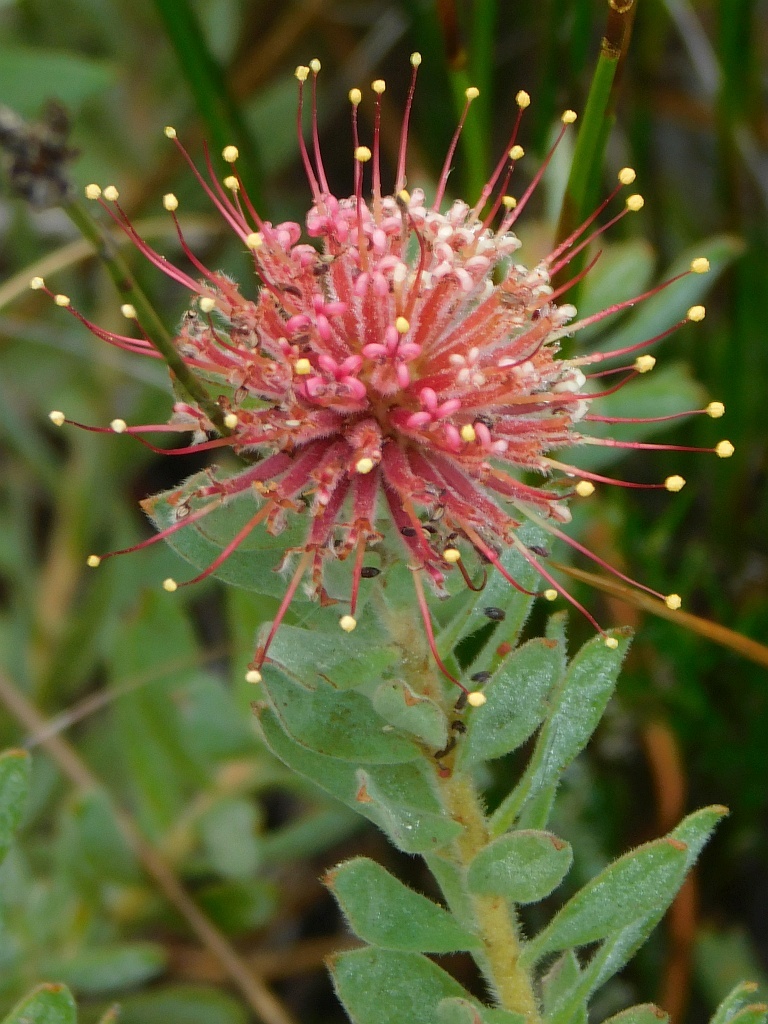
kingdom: Plantae
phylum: Tracheophyta
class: Magnoliopsida
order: Proteales
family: Proteaceae
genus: Leucospermum
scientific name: Leucospermum calligerum
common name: Arid pincushion
